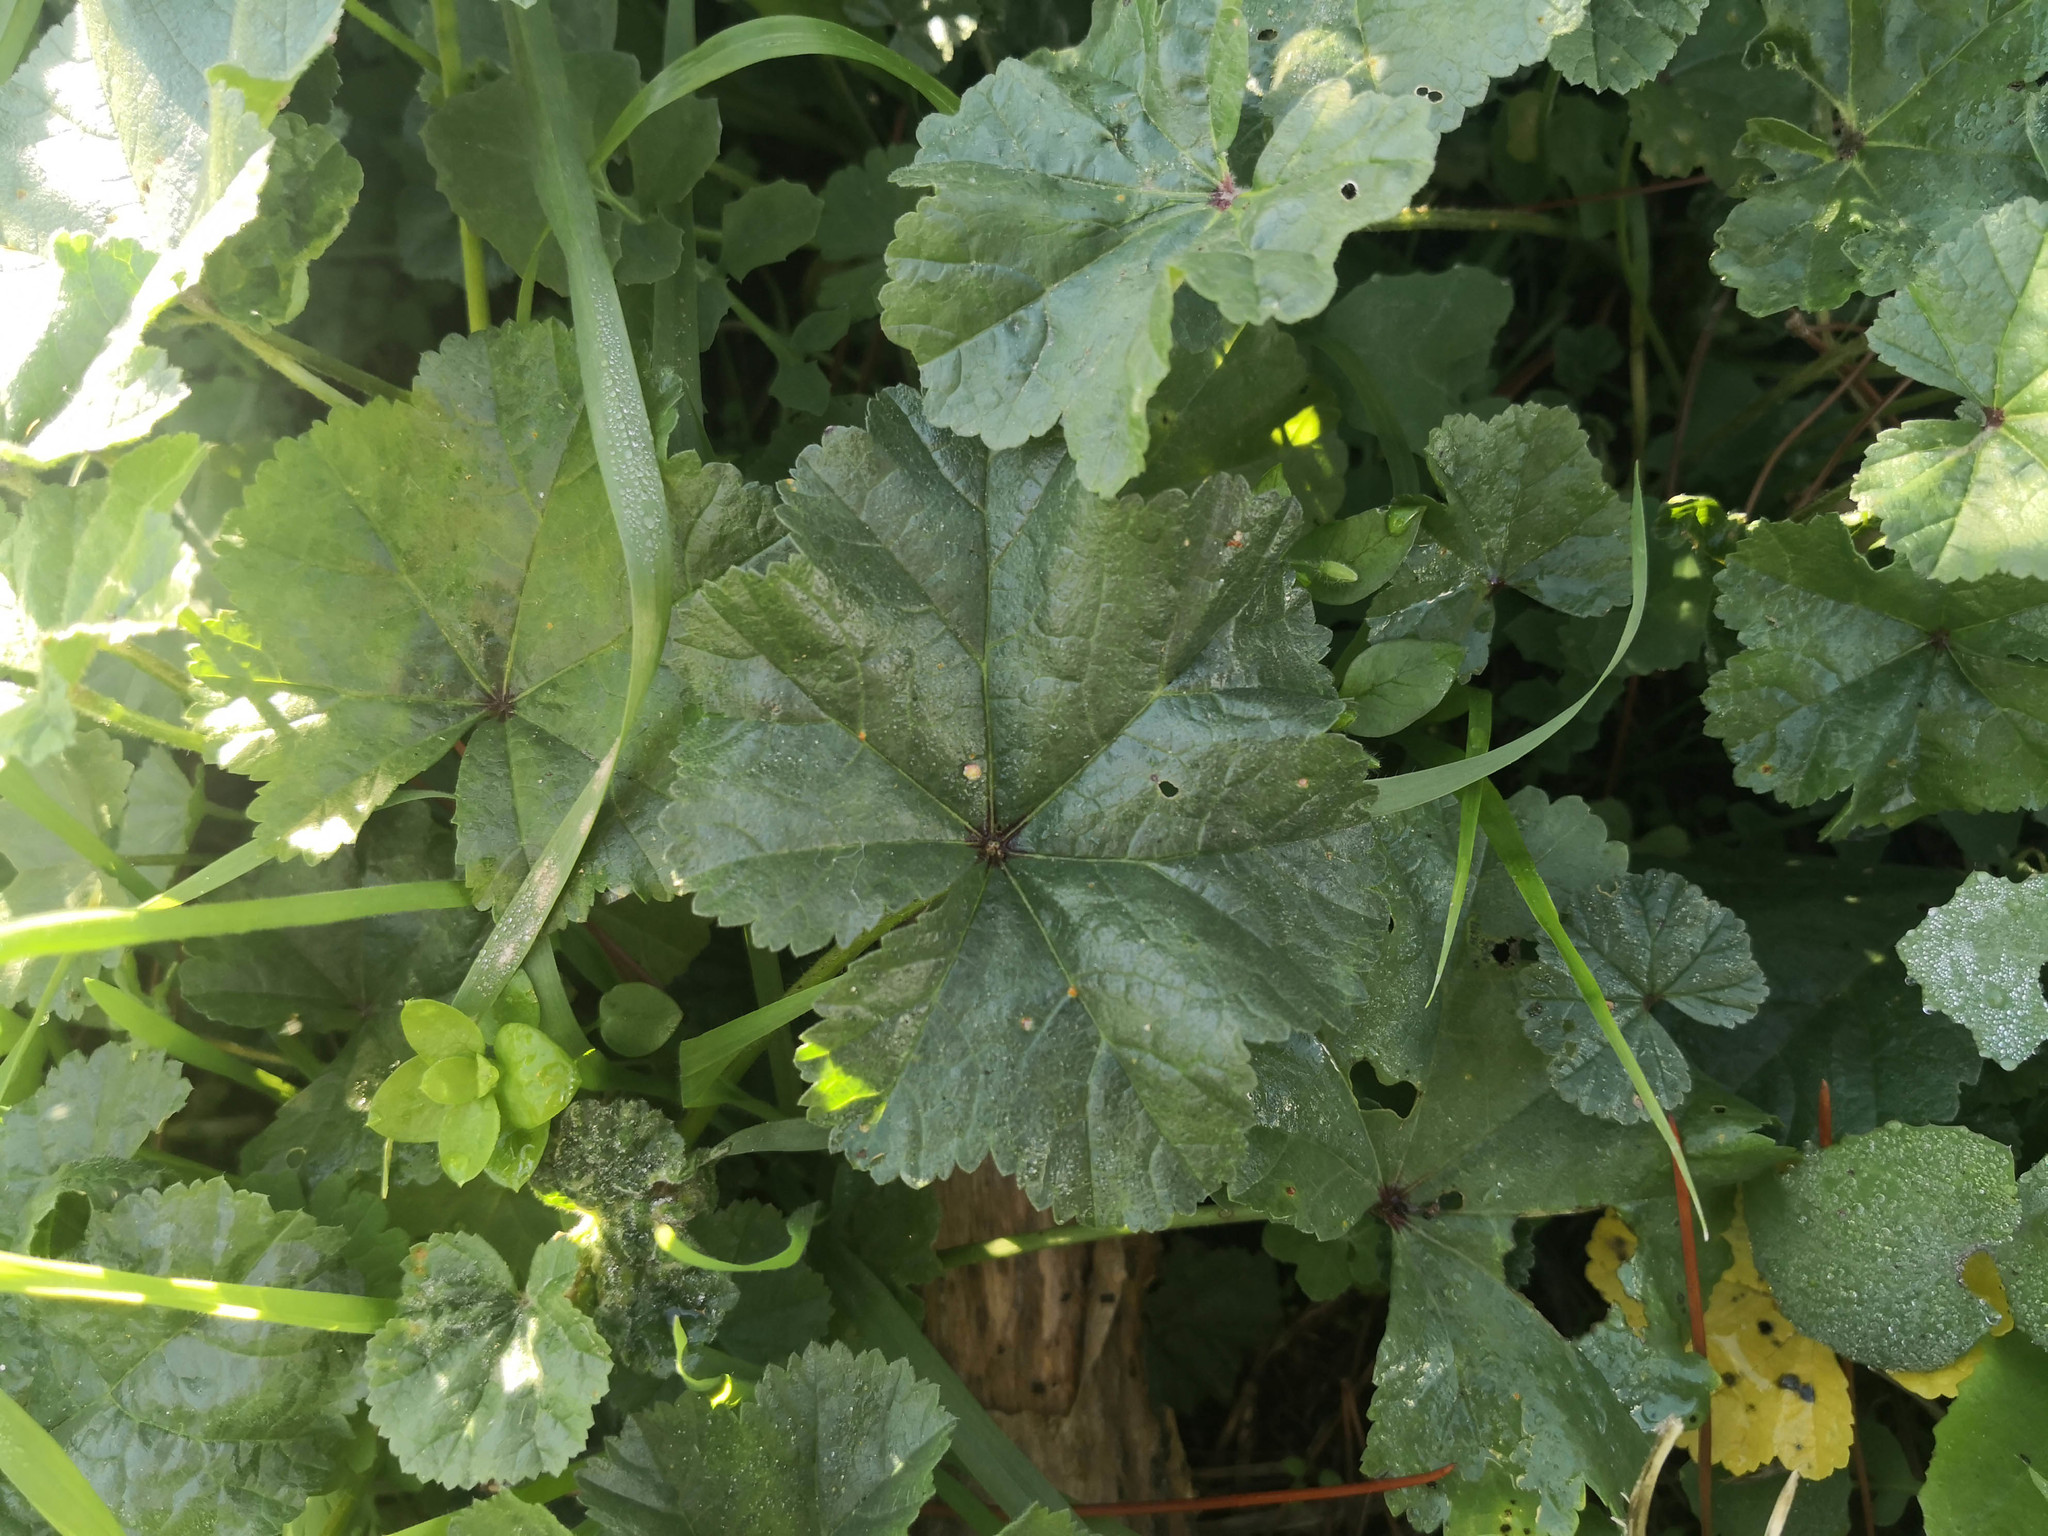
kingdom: Plantae
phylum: Tracheophyta
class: Magnoliopsida
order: Malvales
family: Malvaceae
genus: Malva
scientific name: Malva sylvestris
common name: Common mallow
